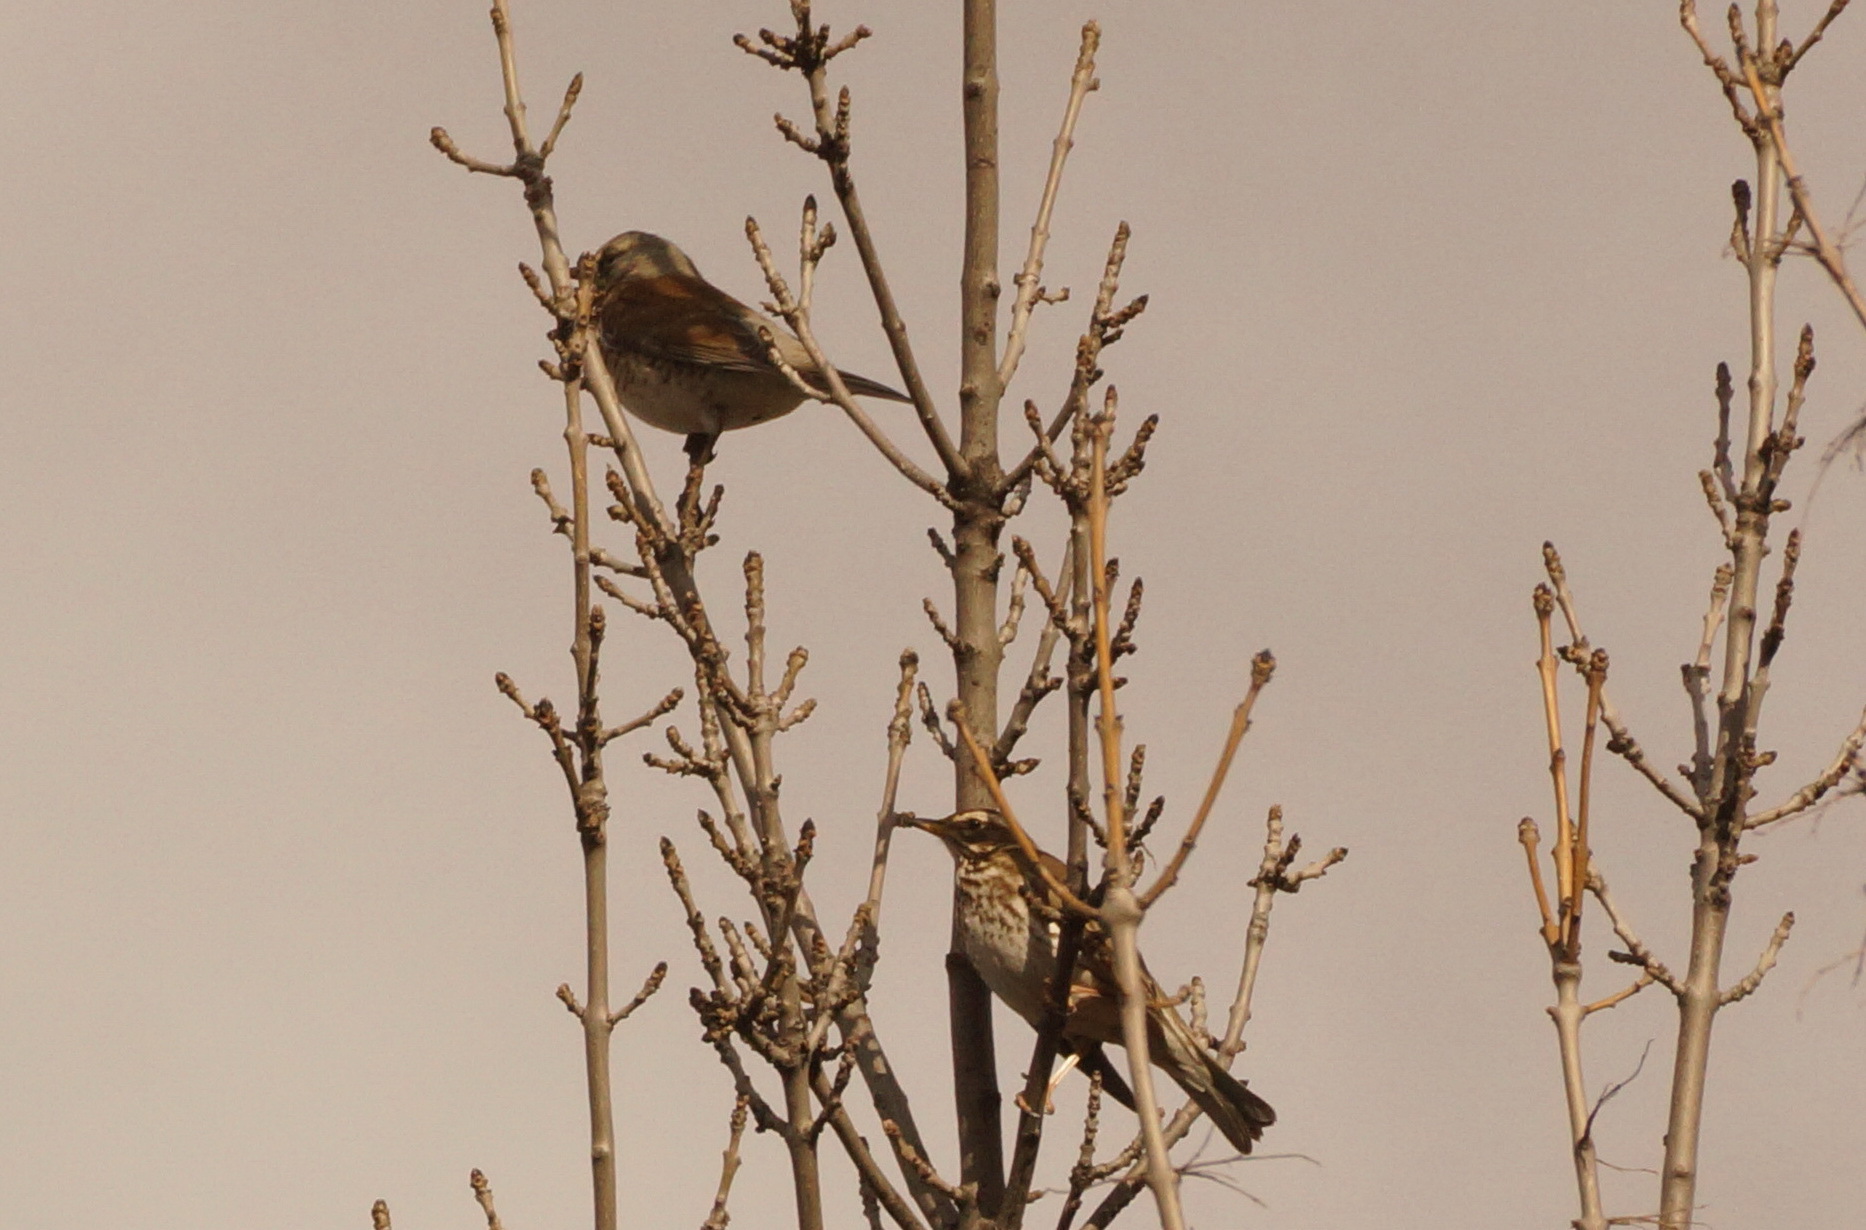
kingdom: Animalia
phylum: Chordata
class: Aves
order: Passeriformes
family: Turdidae
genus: Turdus
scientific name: Turdus pilaris
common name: Fieldfare
